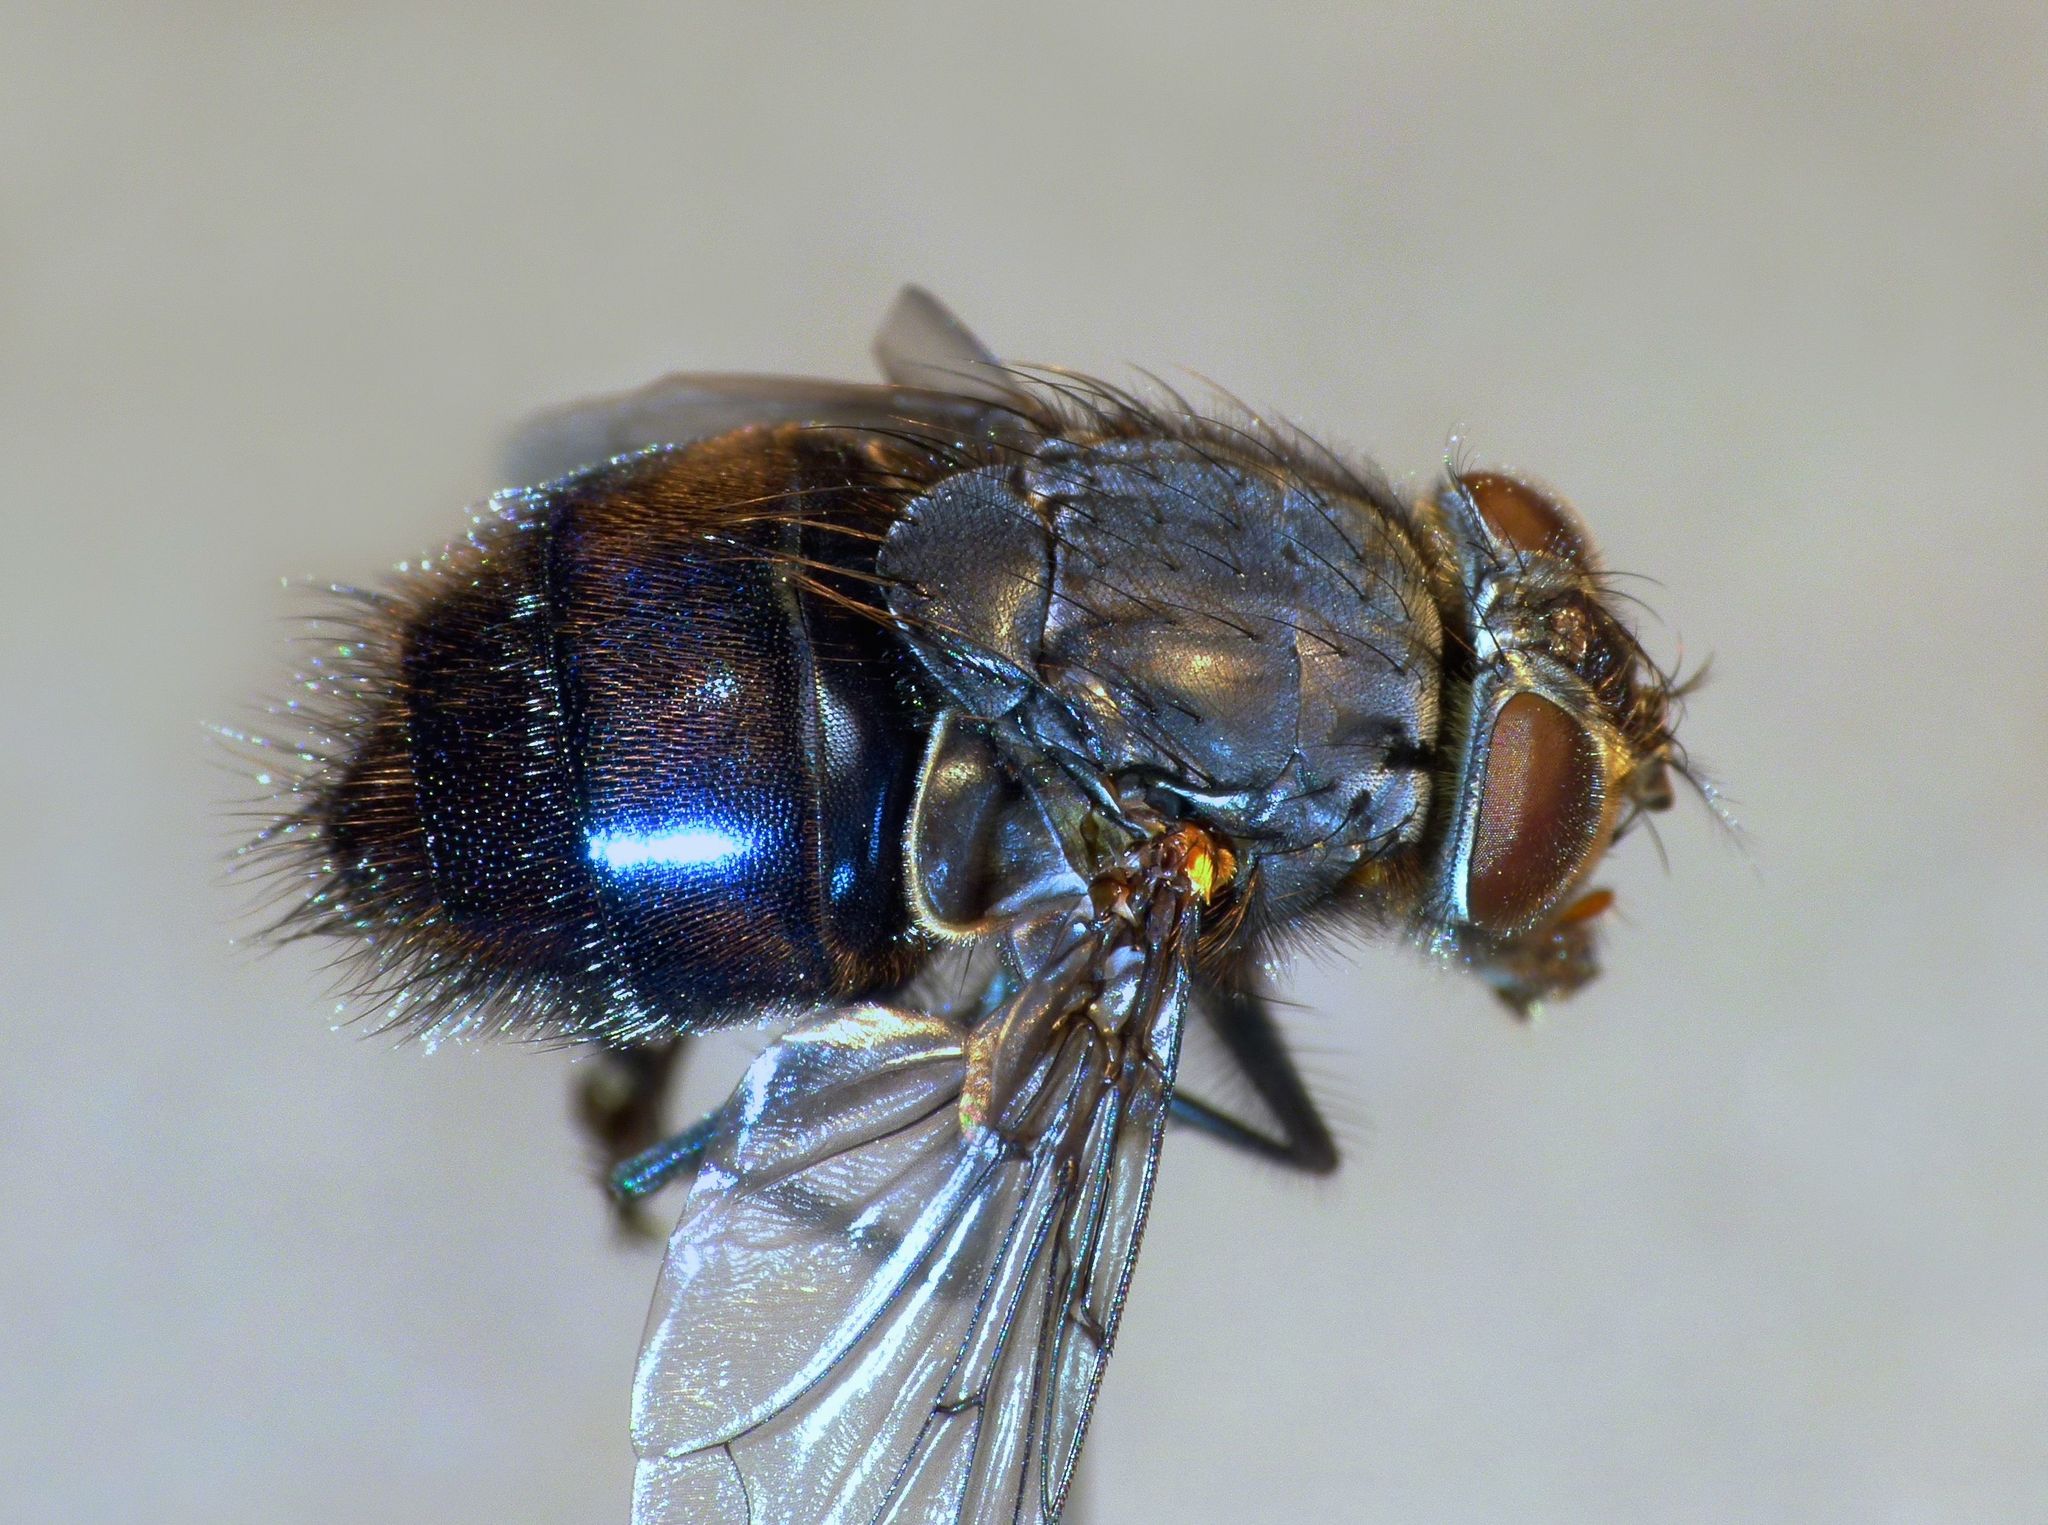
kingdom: Animalia
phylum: Arthropoda
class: Insecta
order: Diptera
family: Calliphoridae
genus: Calliphora
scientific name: Calliphora quadrimaculata
